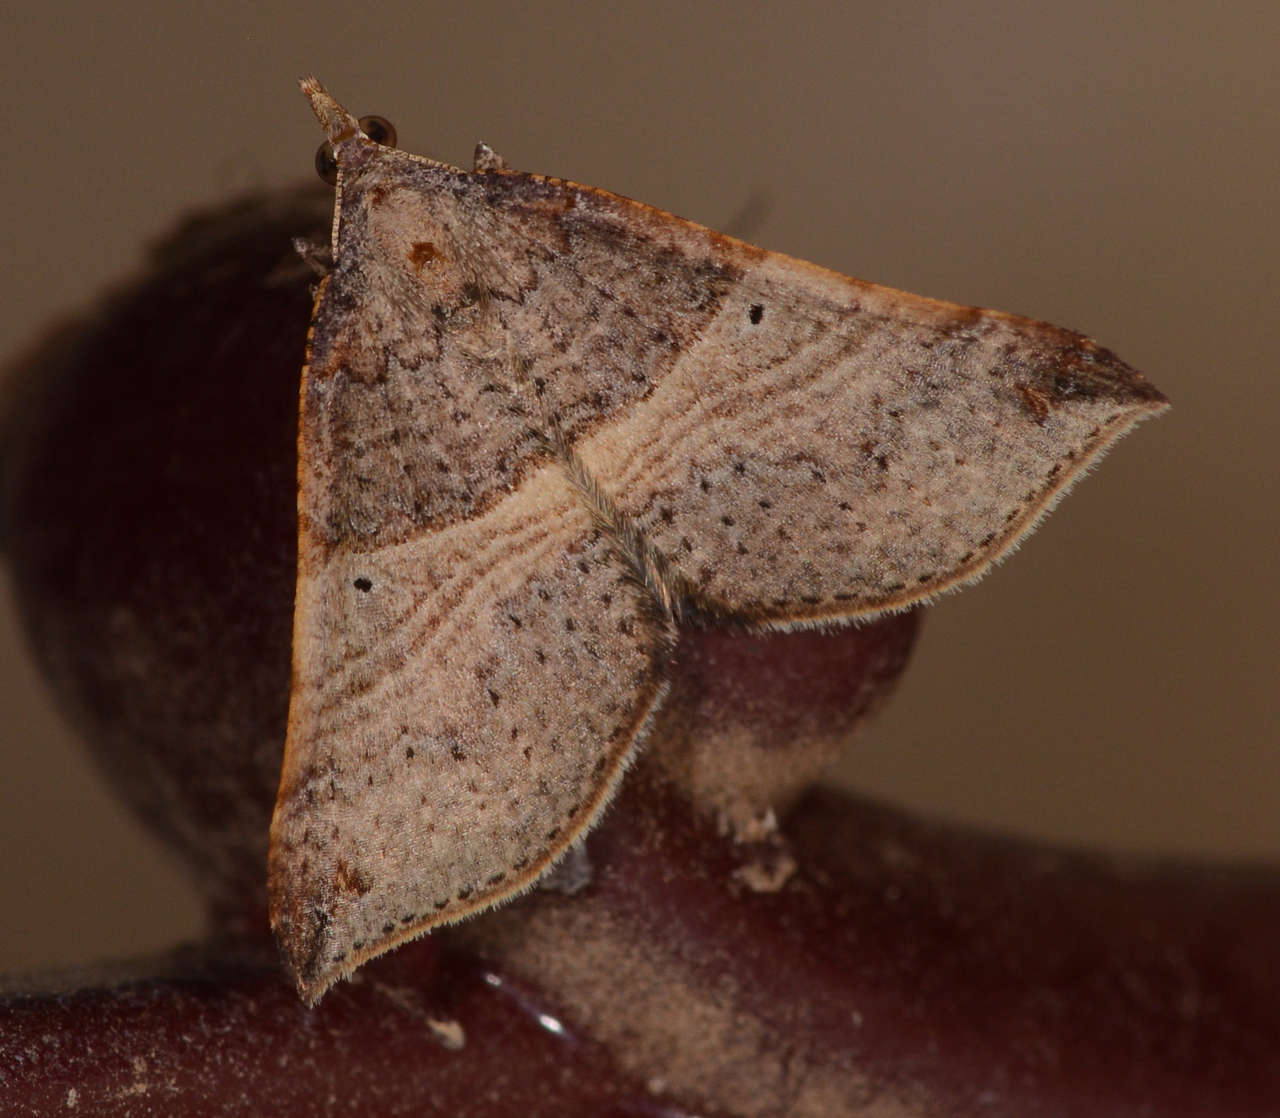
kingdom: Animalia
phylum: Arthropoda
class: Insecta
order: Lepidoptera
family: Geometridae
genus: Anachloris
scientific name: Anachloris uncinata
